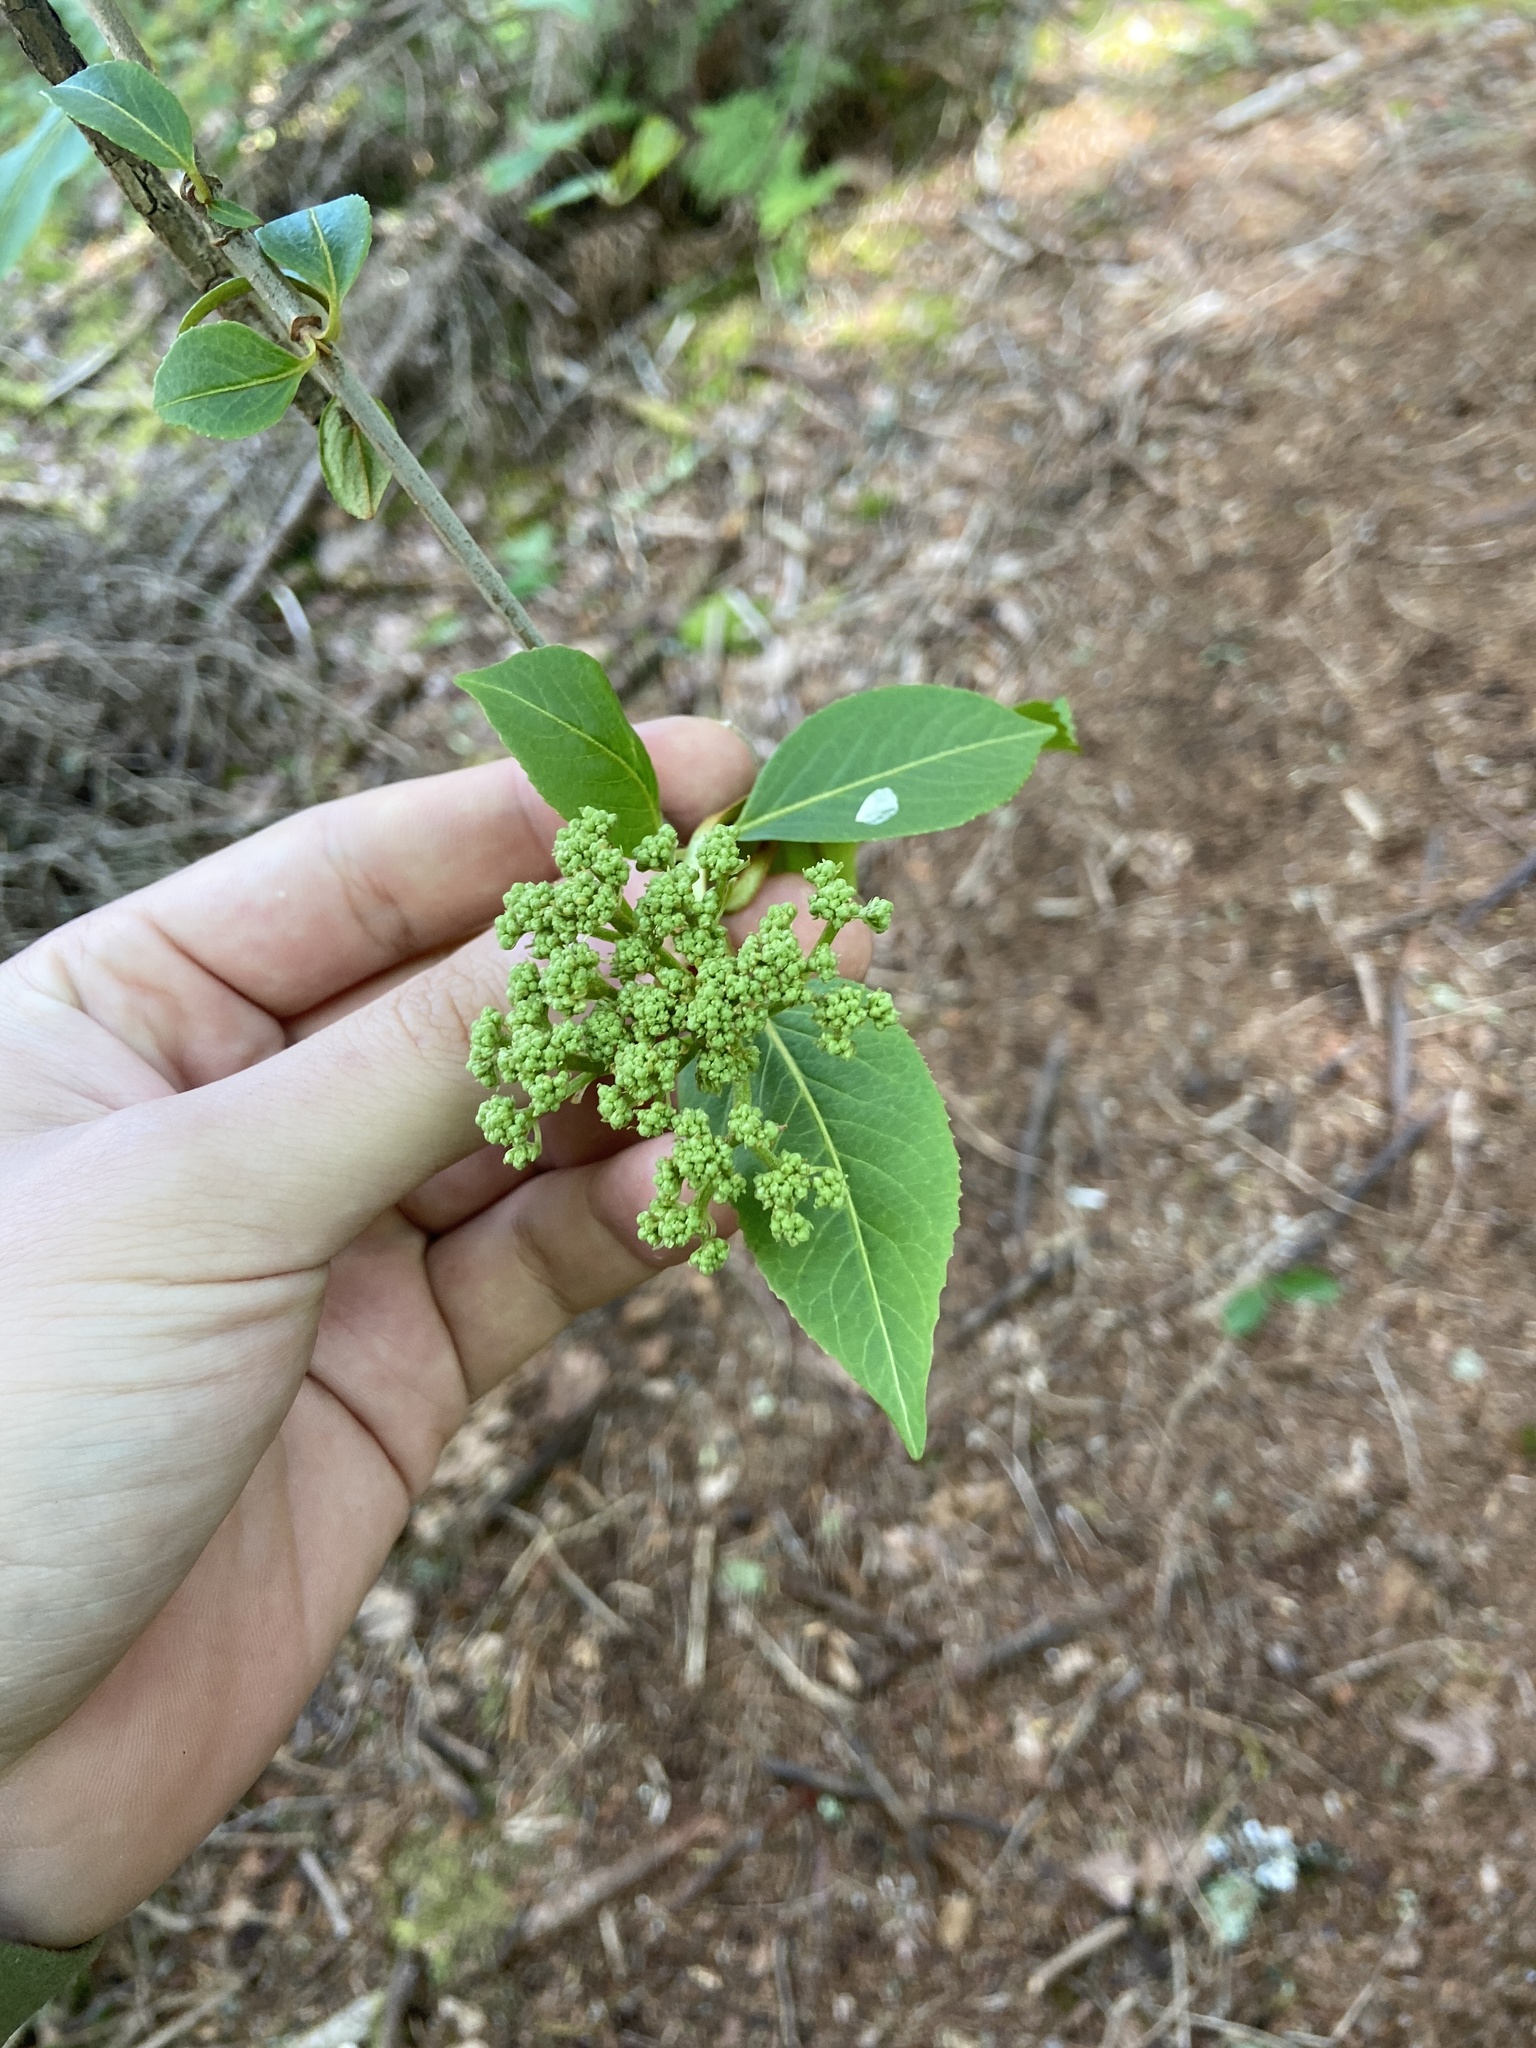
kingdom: Plantae
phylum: Tracheophyta
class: Magnoliopsida
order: Dipsacales
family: Viburnaceae
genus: Viburnum
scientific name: Viburnum cassinoides
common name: Swamp haw
